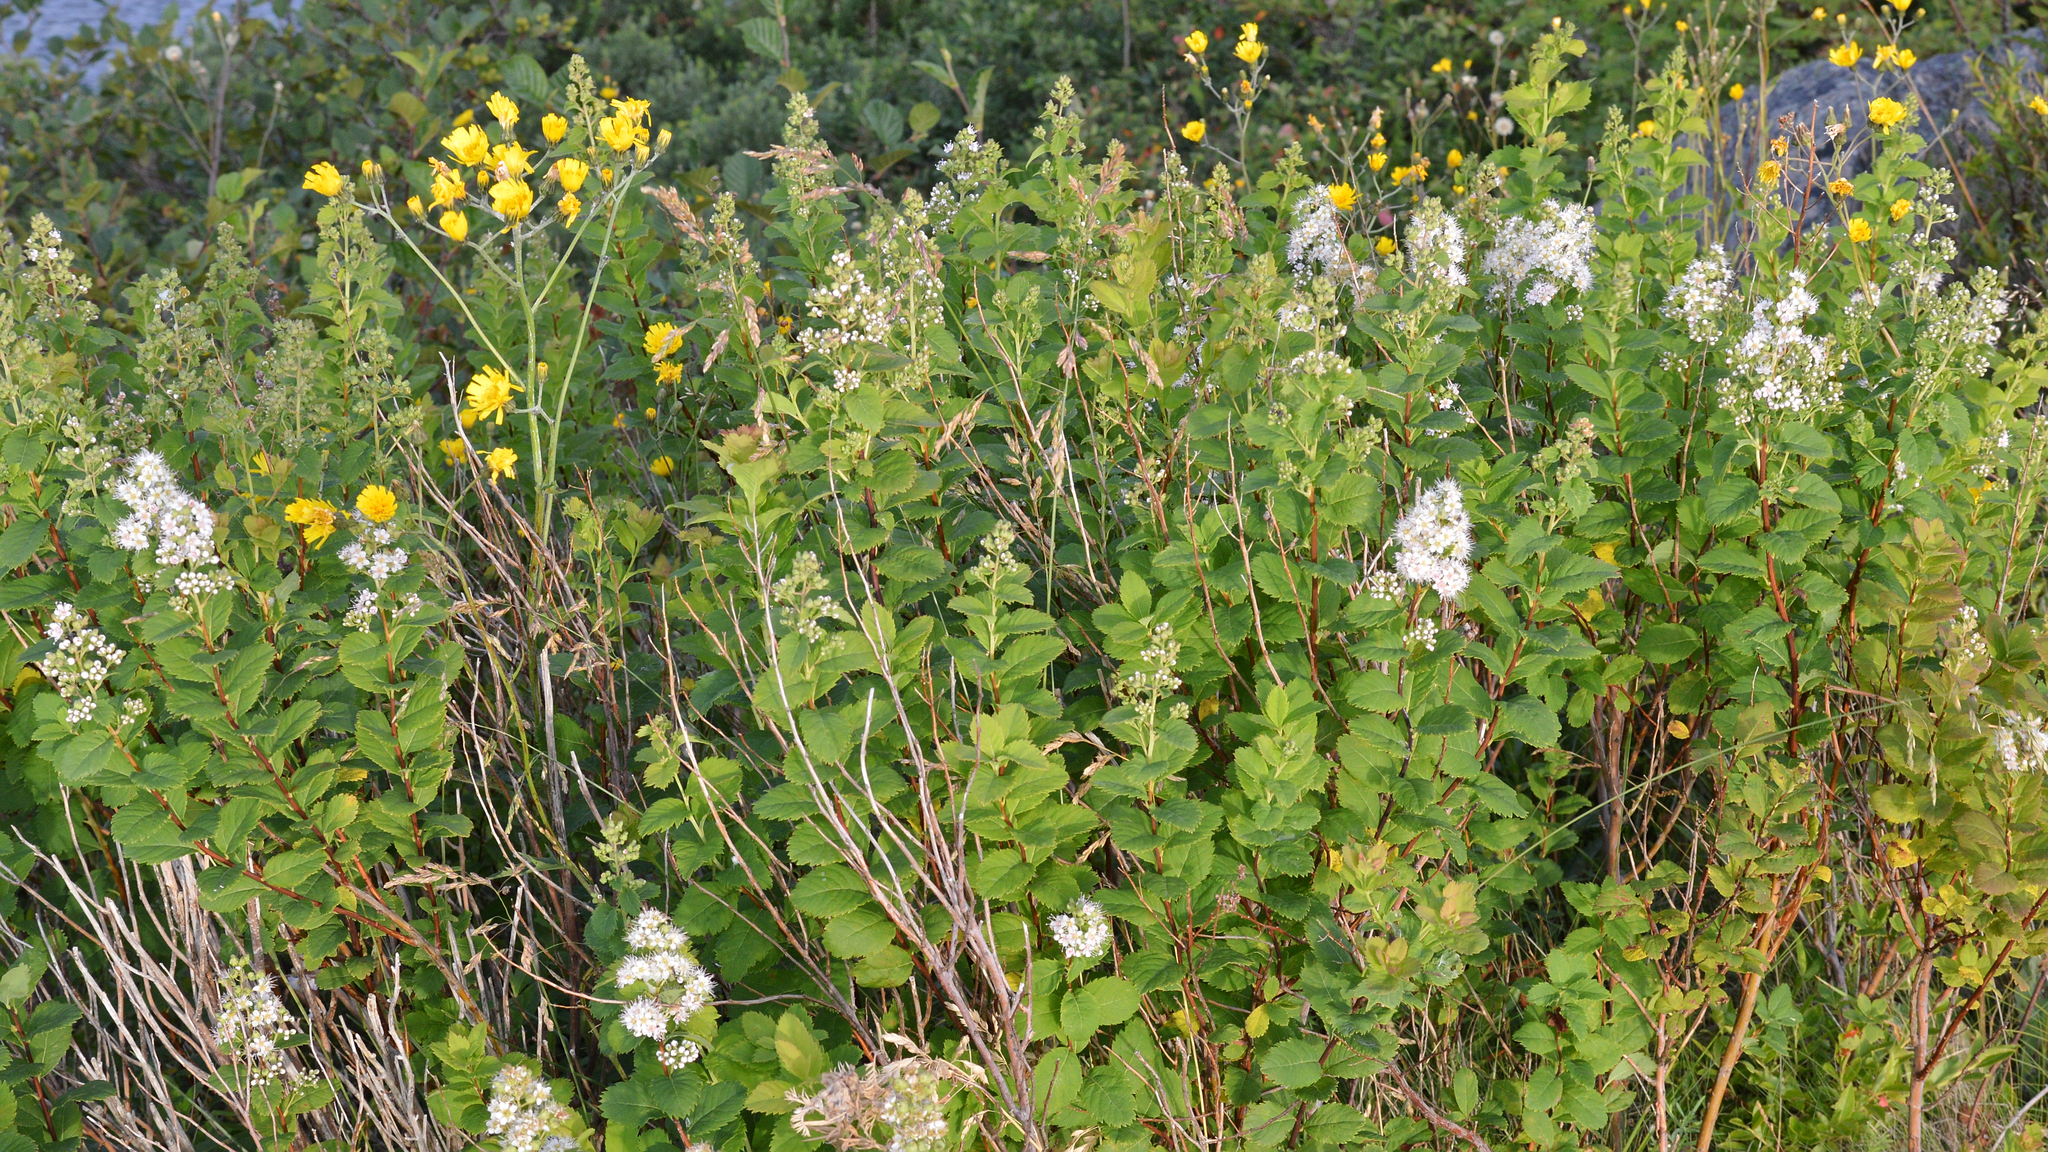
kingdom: Plantae
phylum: Tracheophyta
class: Magnoliopsida
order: Rosales
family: Rosaceae
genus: Spiraea
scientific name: Spiraea alba
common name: Pale bridewort
